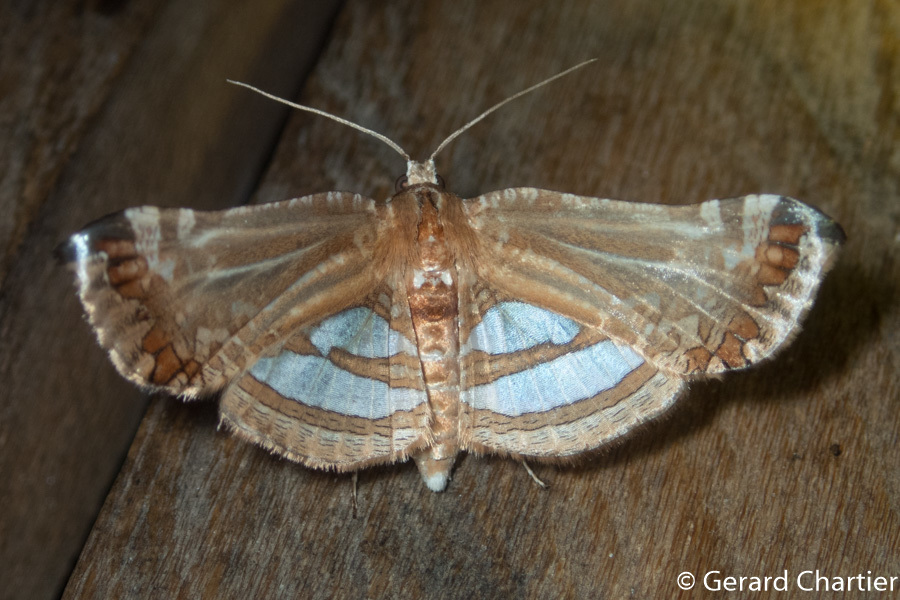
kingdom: Animalia
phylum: Arthropoda
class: Insecta
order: Lepidoptera
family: Thyrididae
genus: Herdonia
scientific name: Herdonia thaiensis
